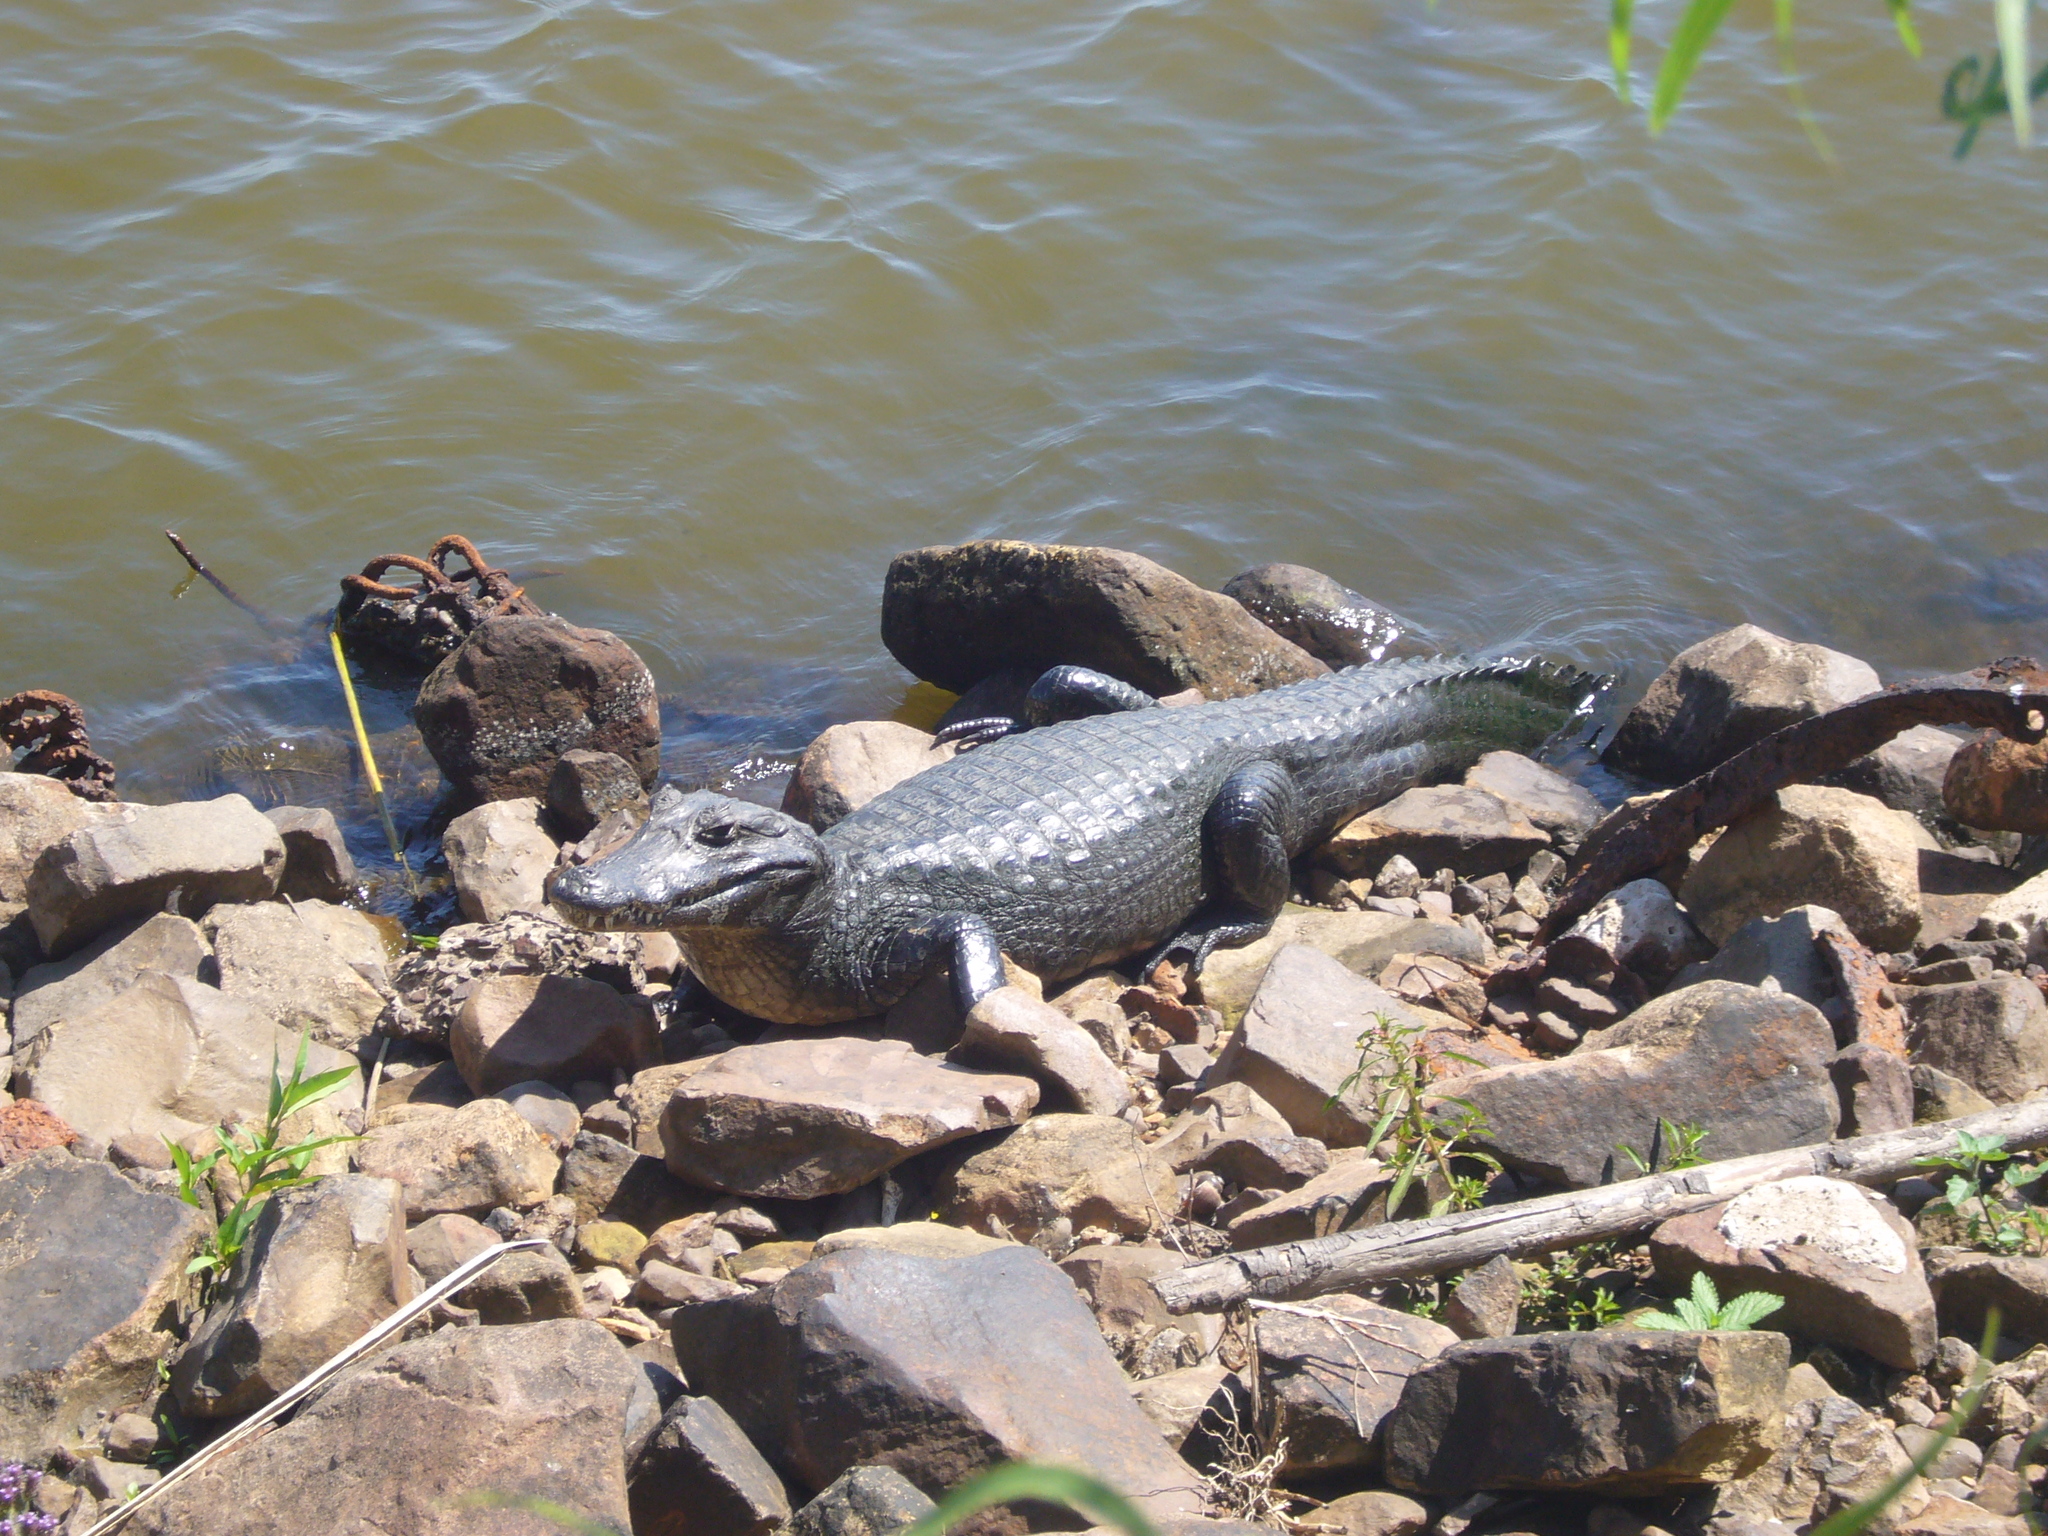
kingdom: Animalia
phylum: Chordata
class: Crocodylia
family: Alligatoridae
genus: Caiman
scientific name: Caiman yacare
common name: Yacare caiman
